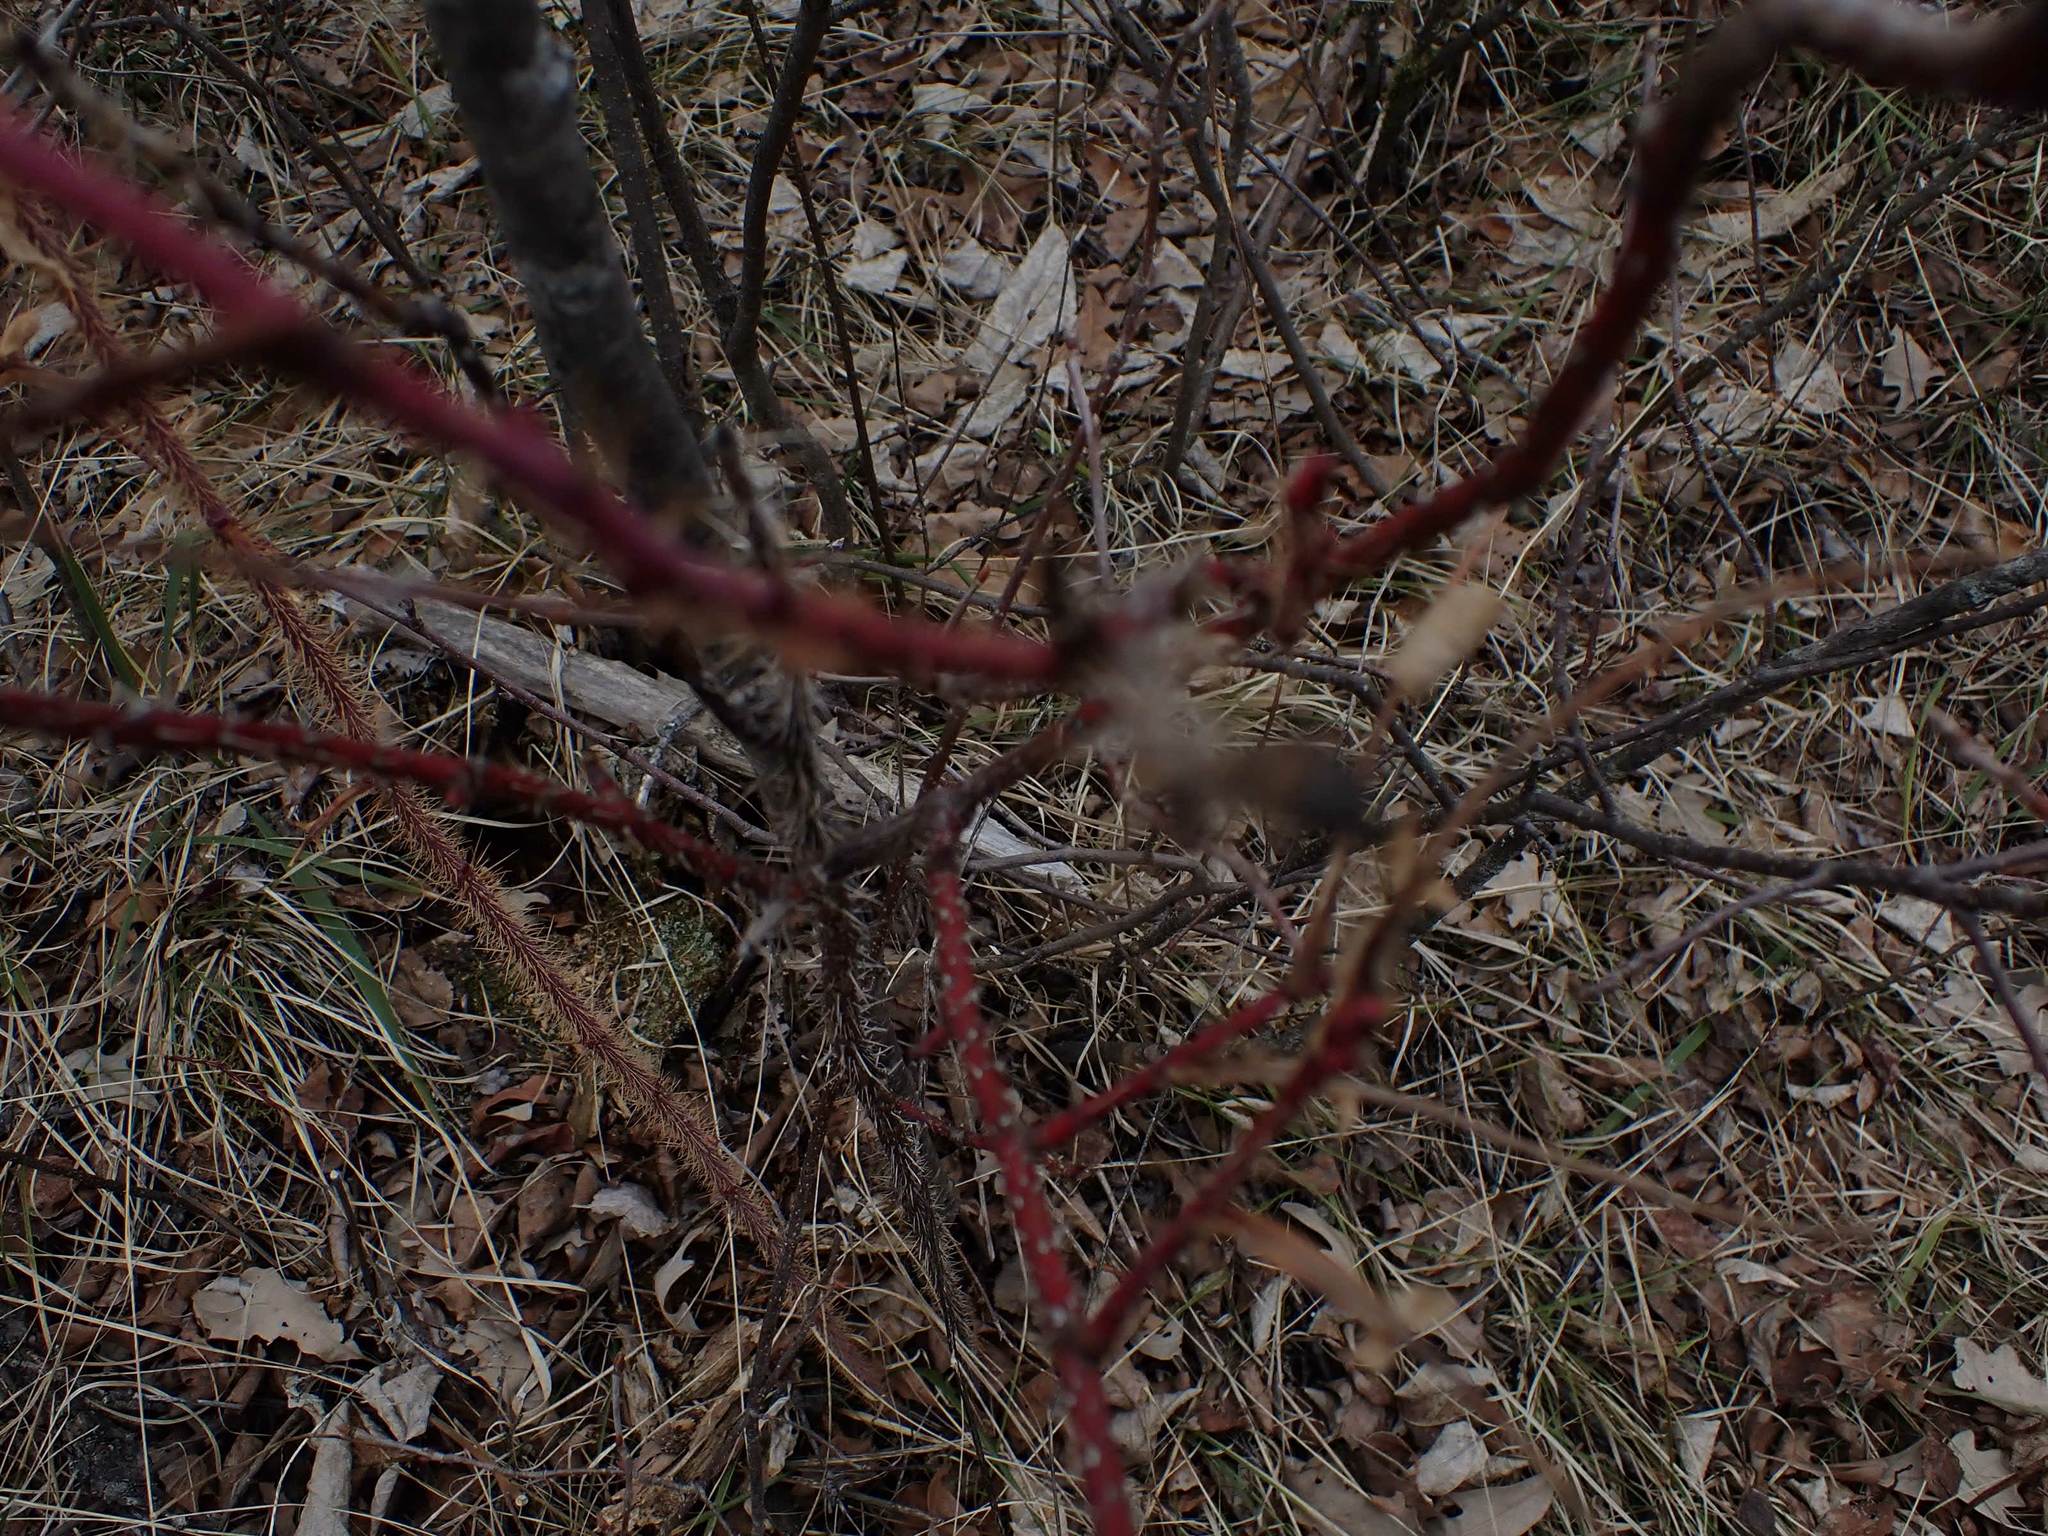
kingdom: Plantae
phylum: Tracheophyta
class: Magnoliopsida
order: Rosales
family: Rosaceae
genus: Rosa
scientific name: Rosa woodsii
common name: Woods's rose
